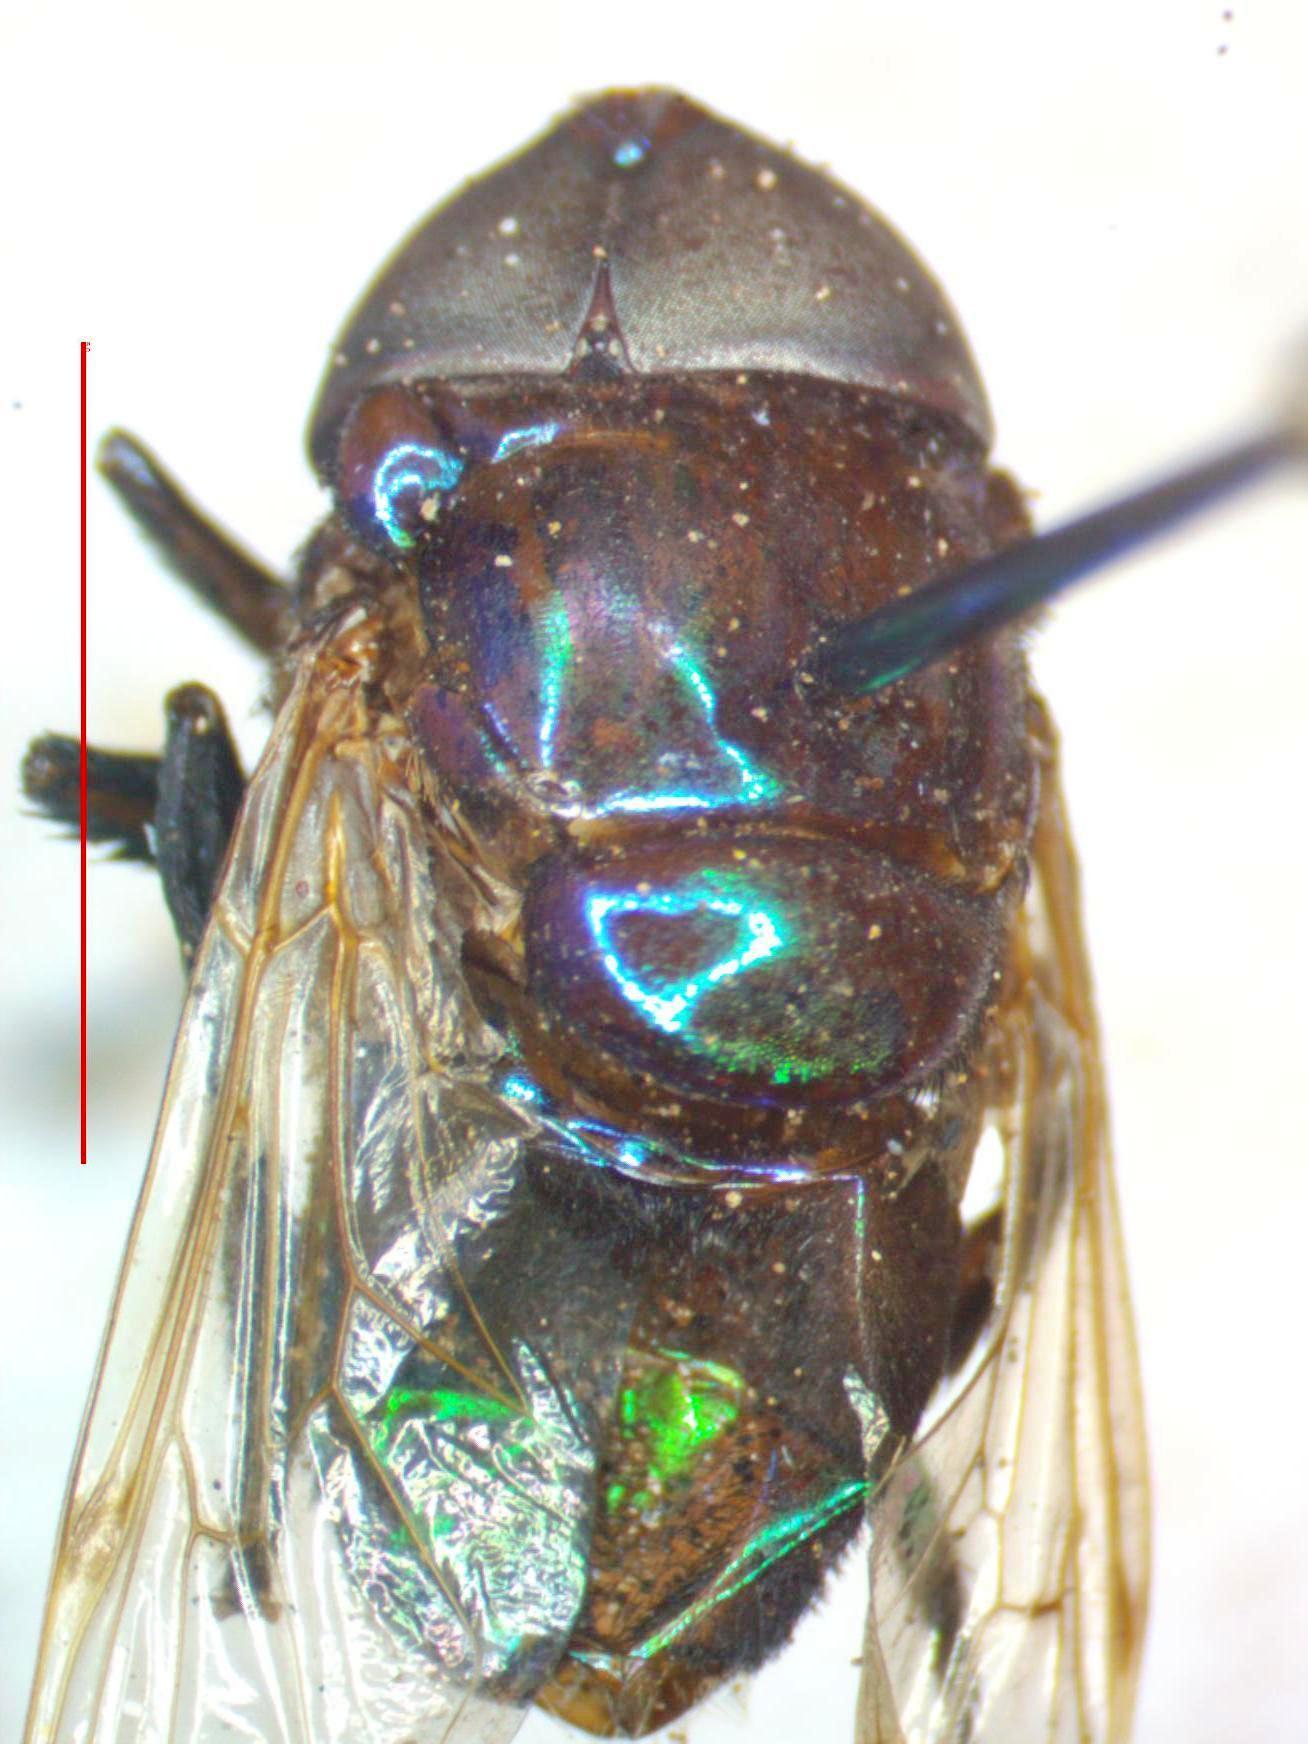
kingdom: Animalia
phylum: Arthropoda
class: Insecta
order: Diptera
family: Syrphidae
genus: Ornidia
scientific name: Ornidia obesa
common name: Syrphid fly
